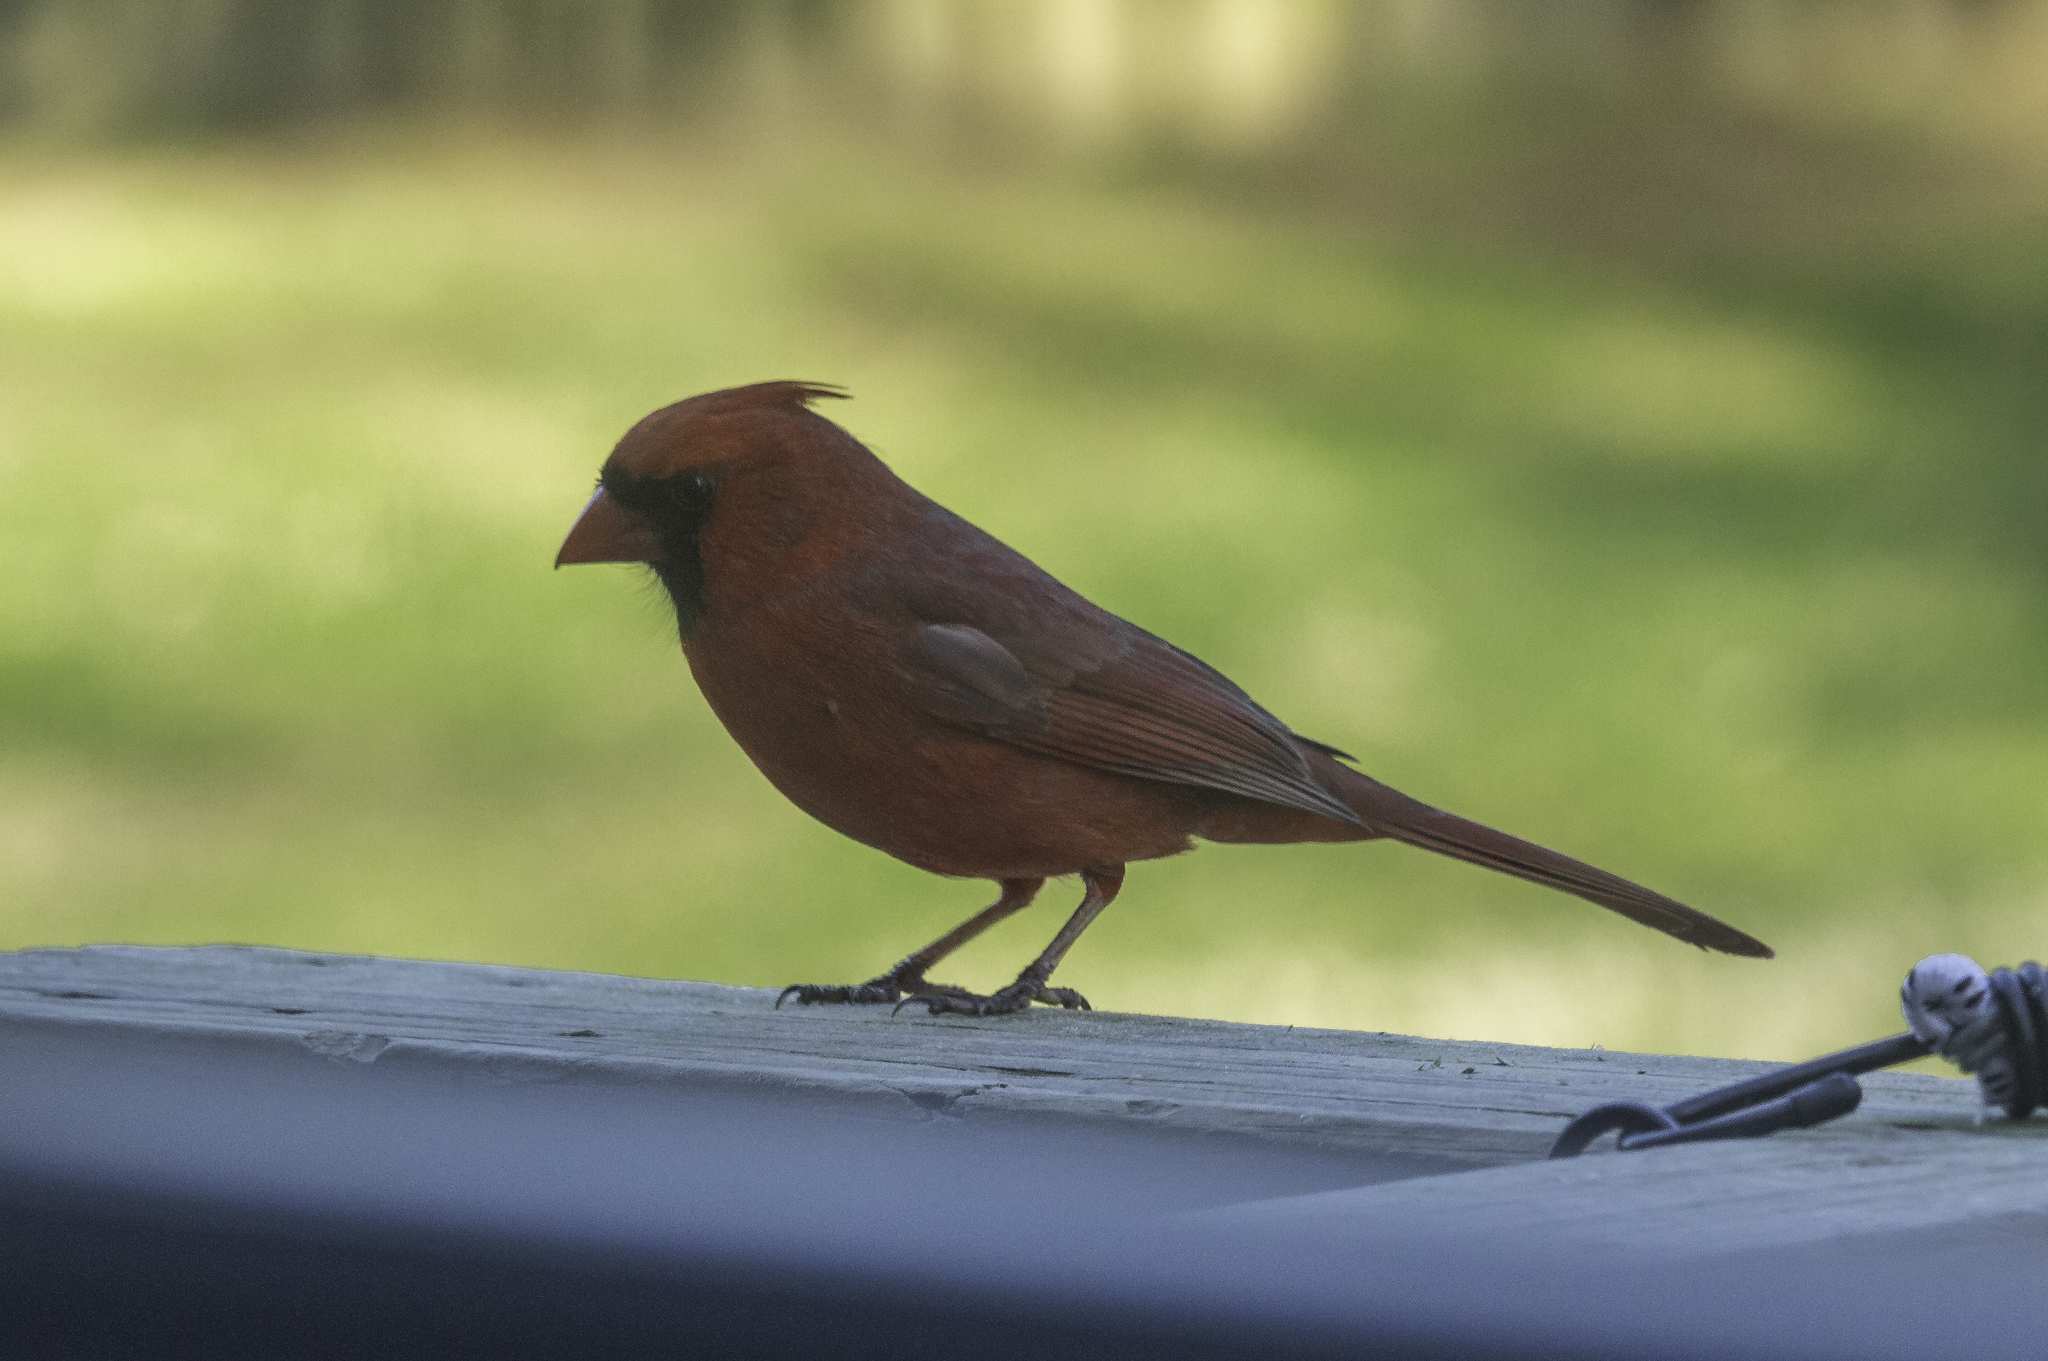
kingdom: Animalia
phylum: Chordata
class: Aves
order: Passeriformes
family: Cardinalidae
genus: Cardinalis
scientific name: Cardinalis cardinalis
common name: Northern cardinal
